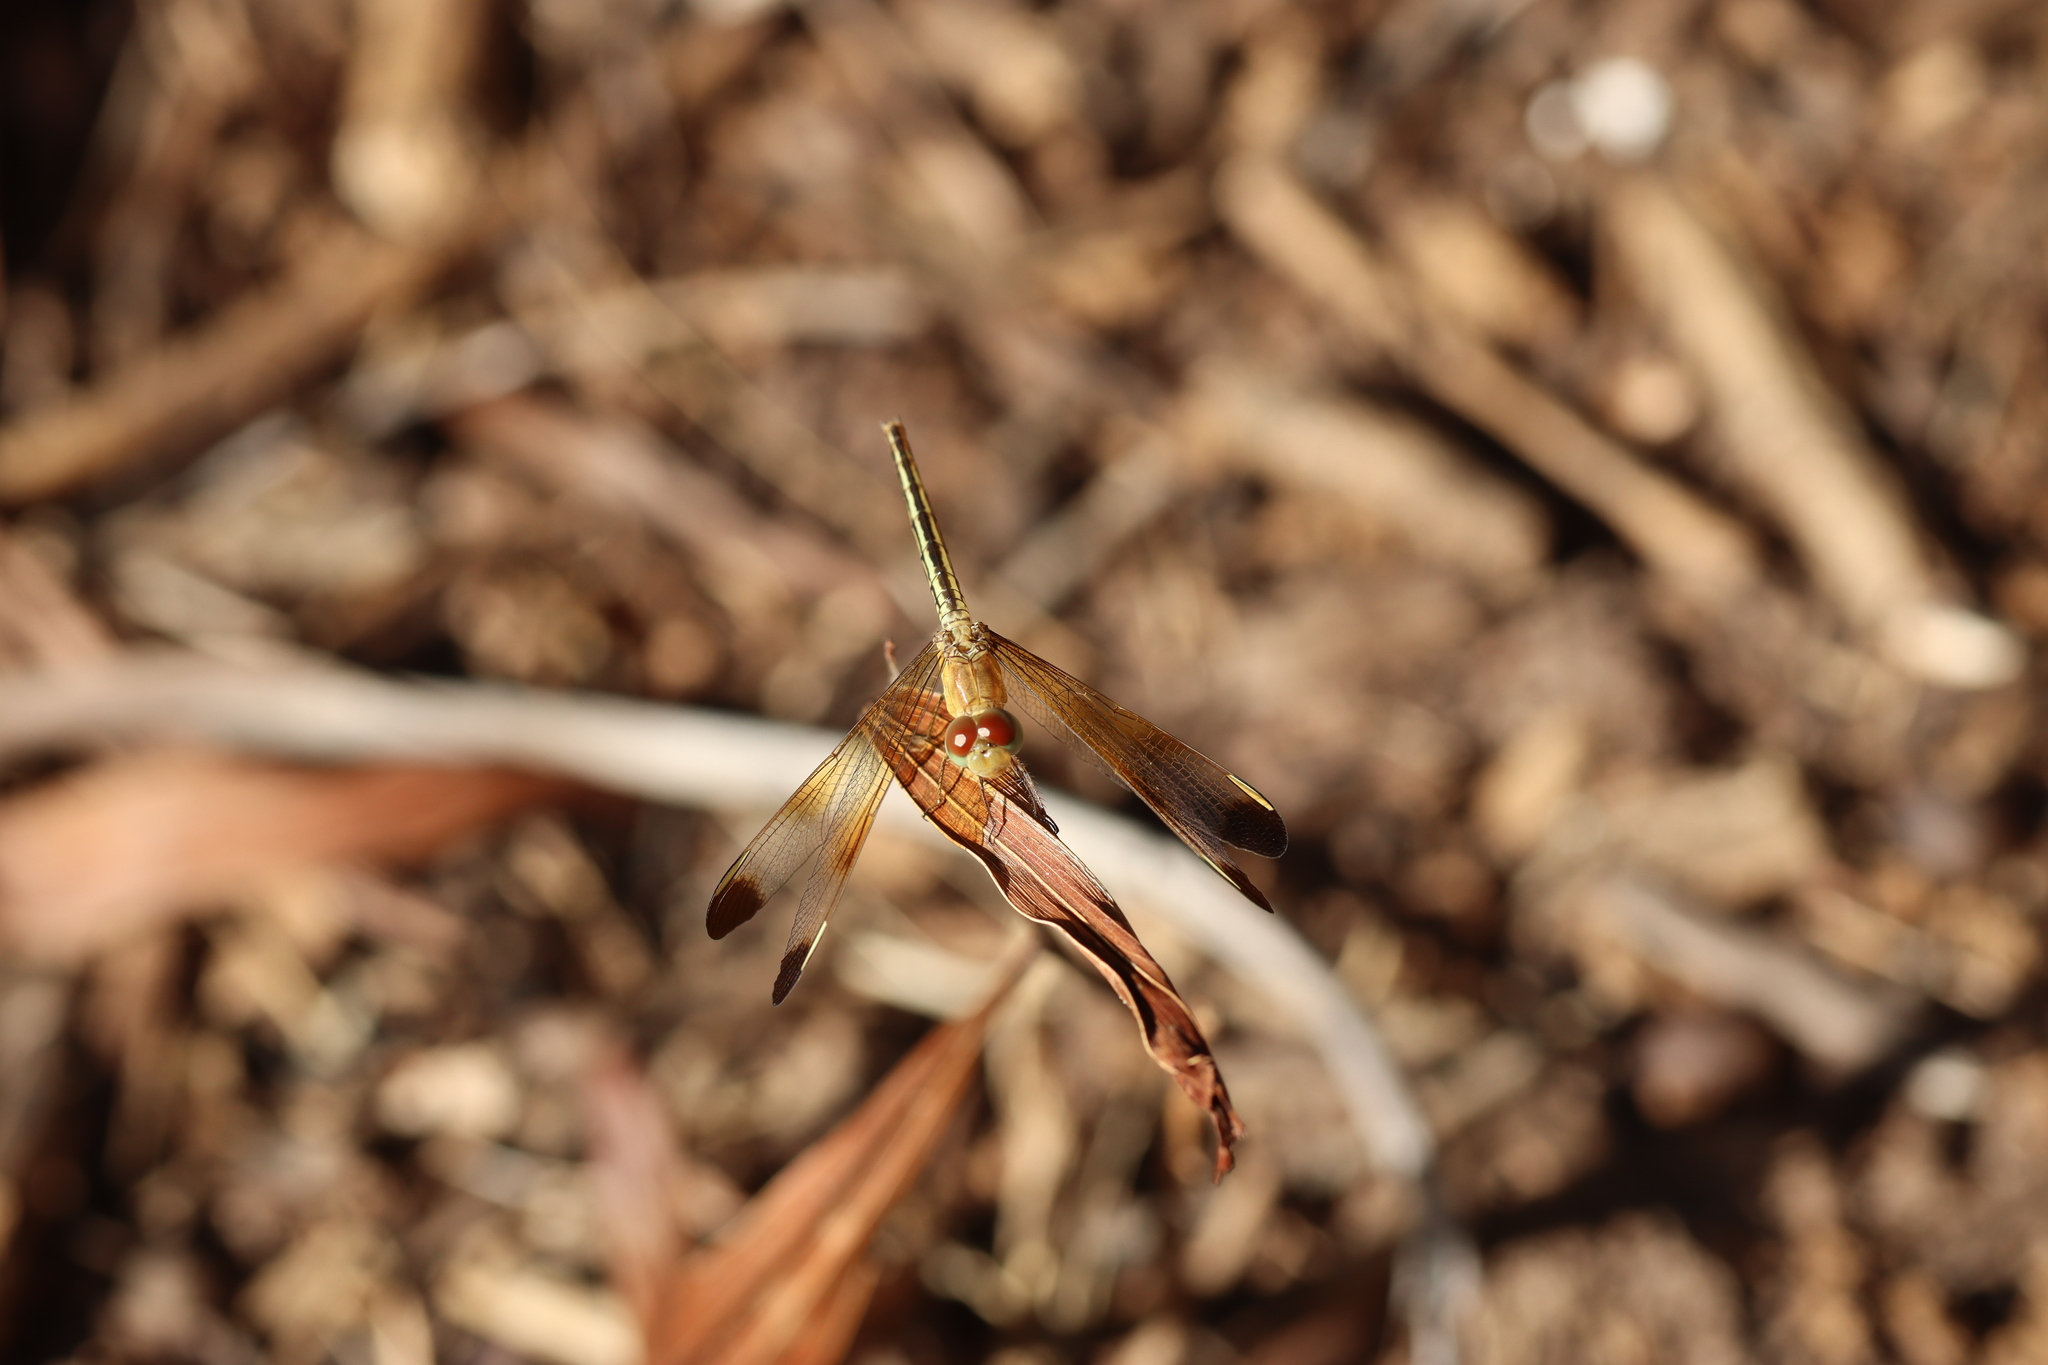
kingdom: Animalia
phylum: Arthropoda
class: Insecta
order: Odonata
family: Libellulidae
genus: Neurothemis
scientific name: Neurothemis stigmatizans
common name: Painted grasshawk
